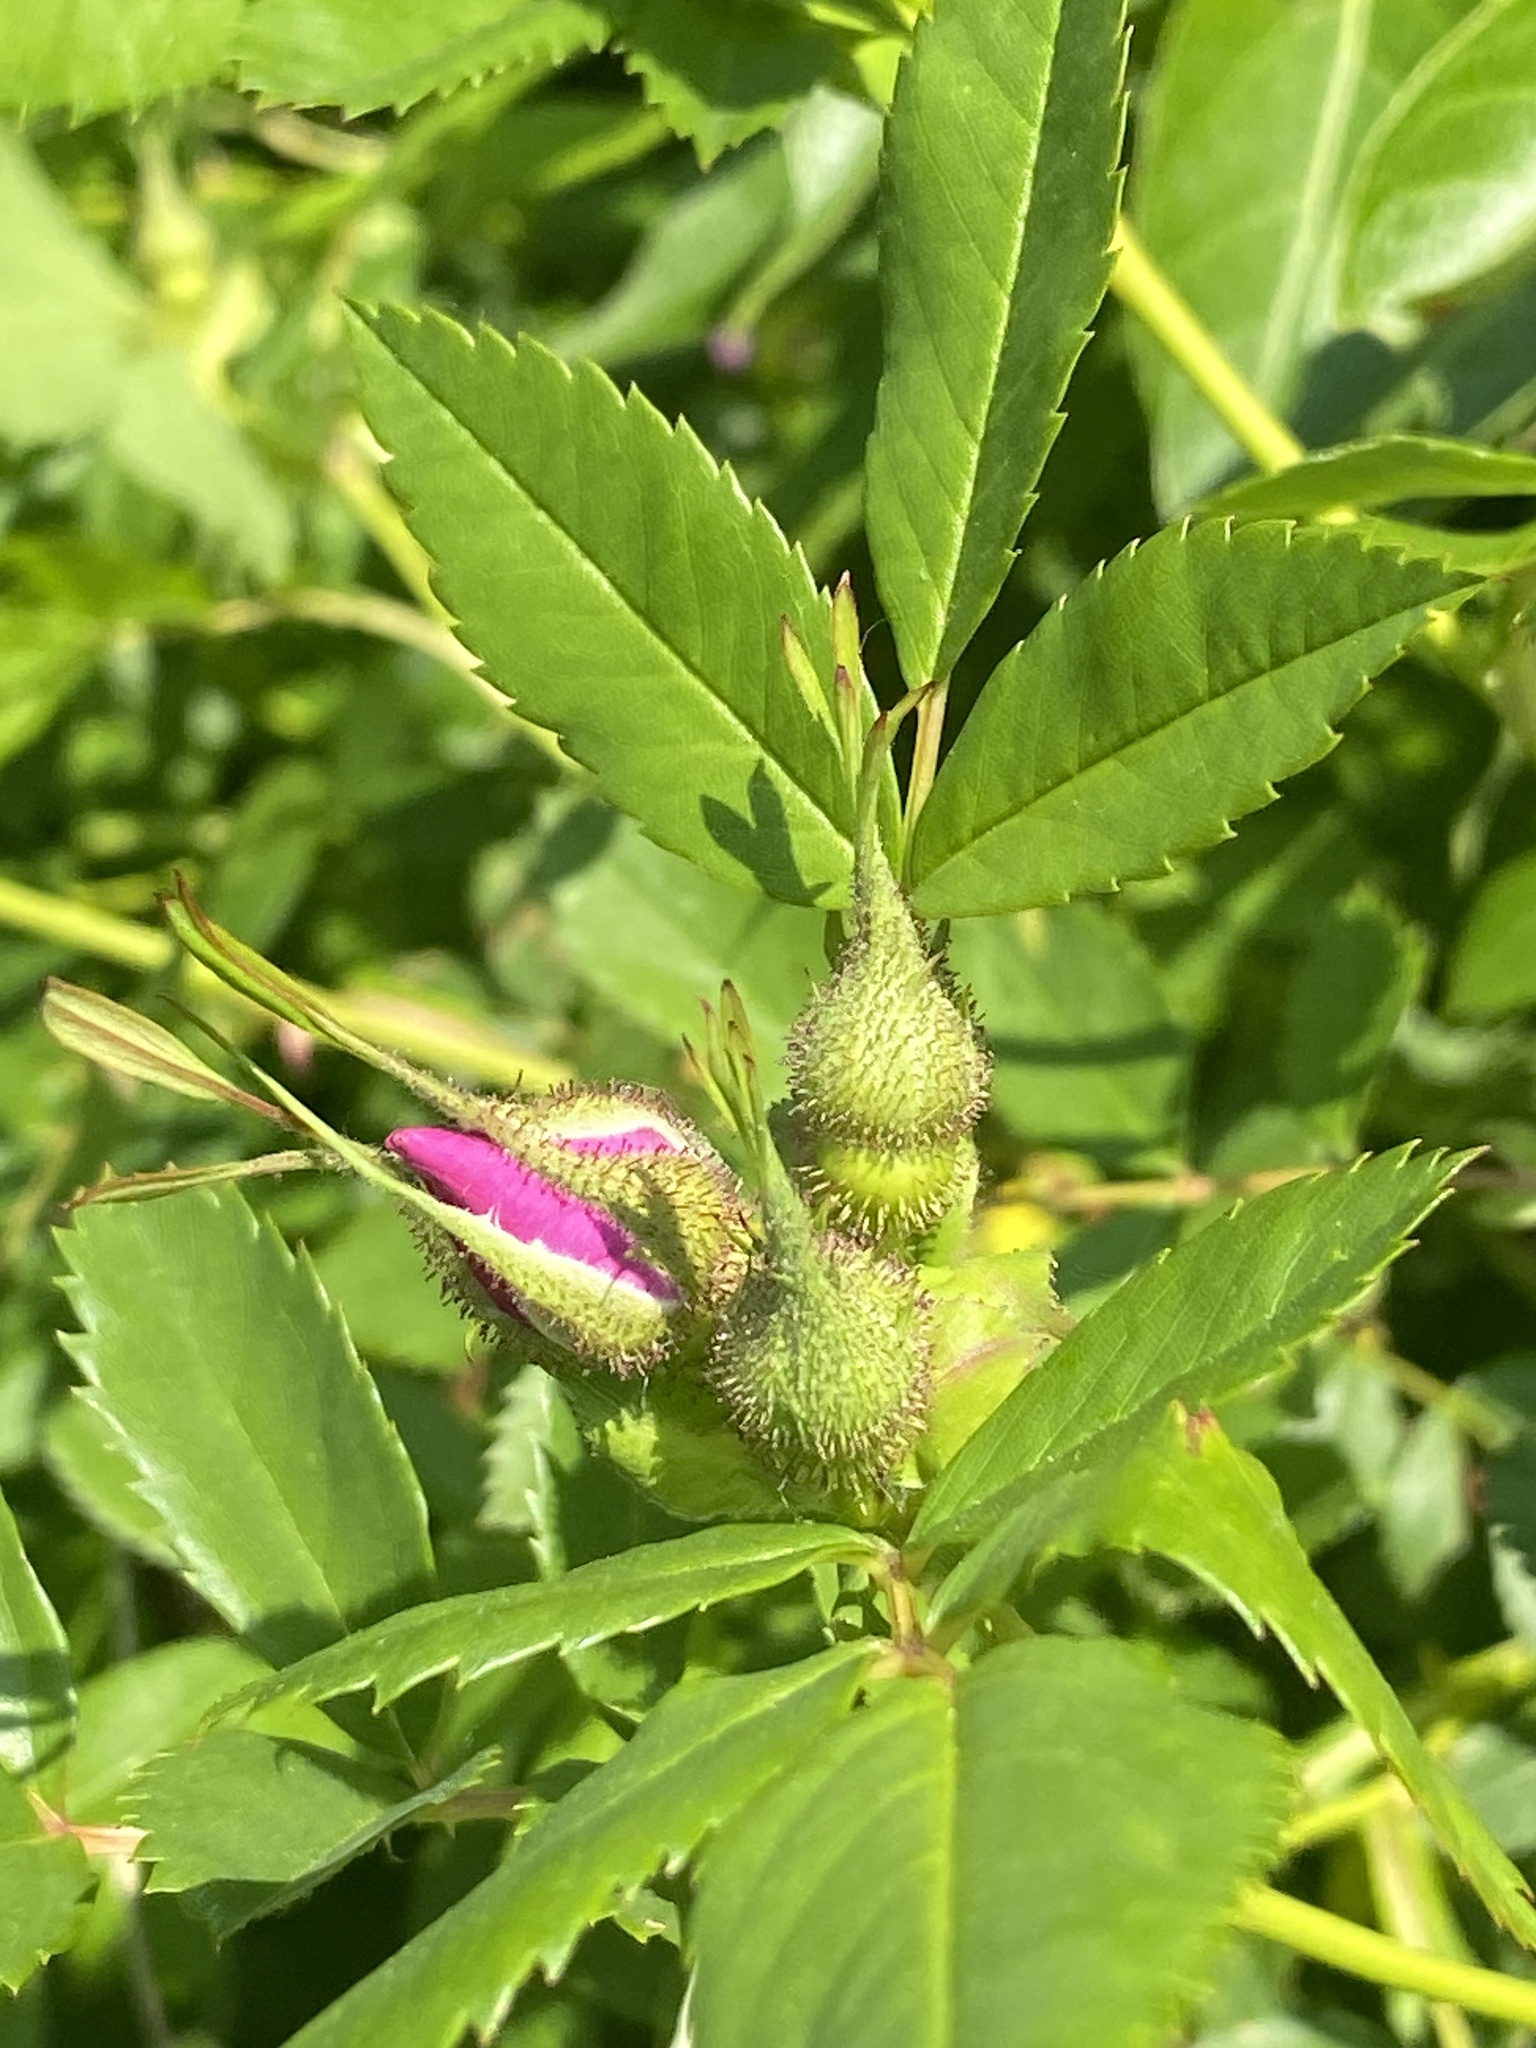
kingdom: Plantae
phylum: Tracheophyta
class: Magnoliopsida
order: Rosales
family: Rosaceae
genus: Rosa
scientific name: Rosa carolina
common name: Pasture rose
